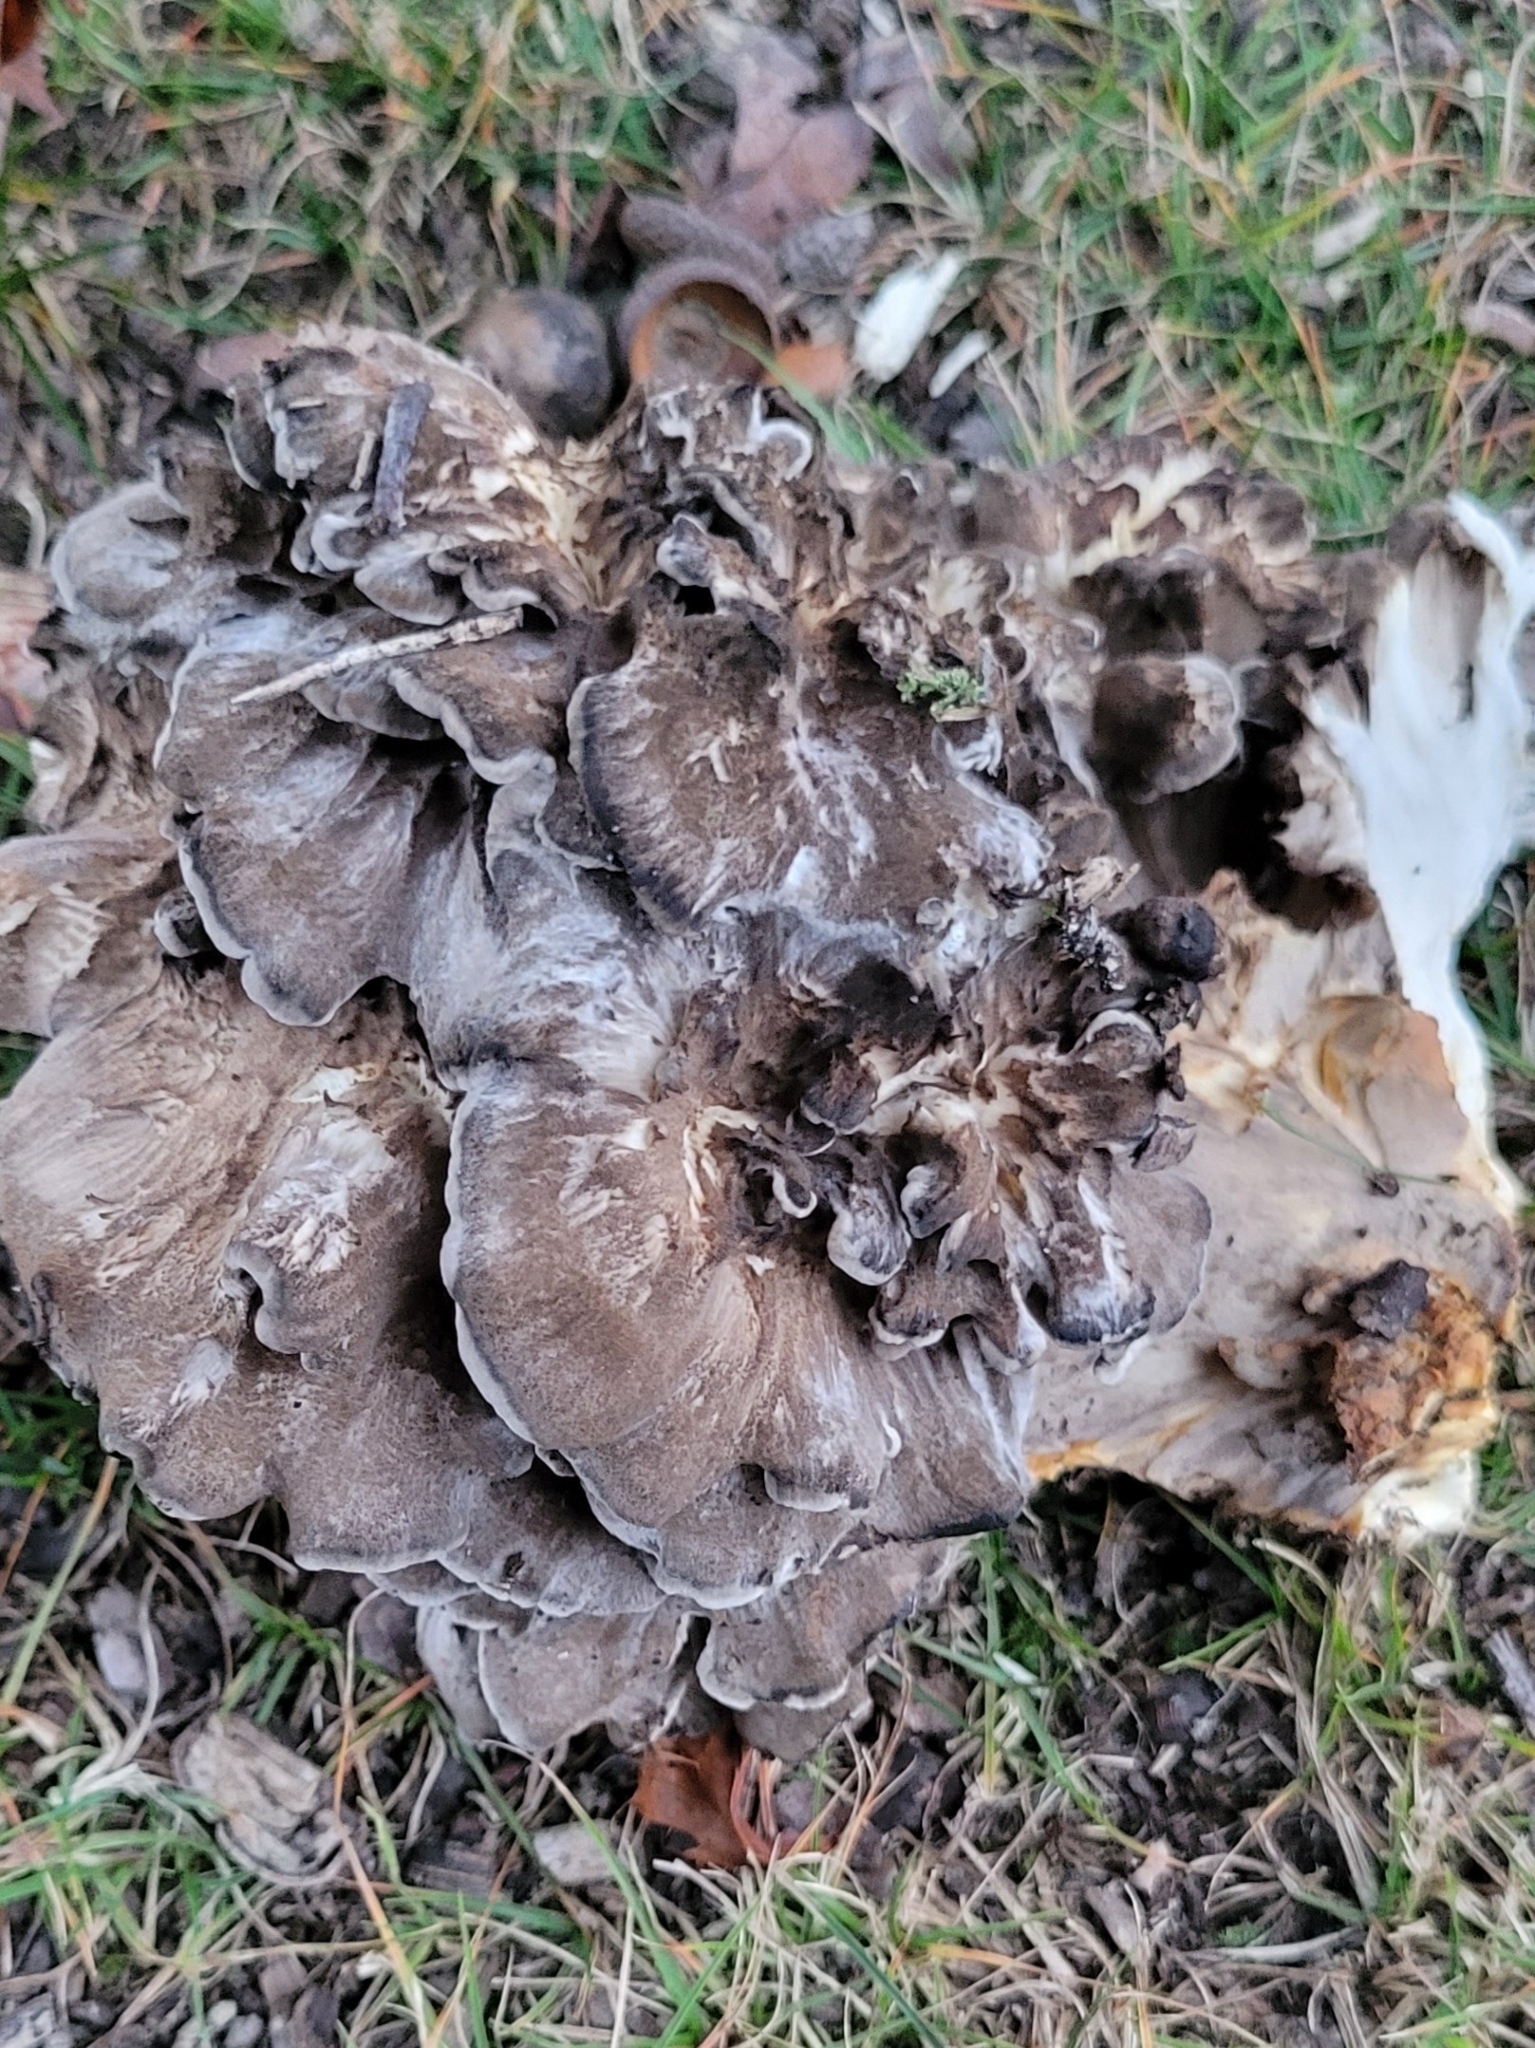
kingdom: Fungi
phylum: Basidiomycota
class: Agaricomycetes
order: Polyporales
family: Grifolaceae
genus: Grifola
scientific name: Grifola frondosa
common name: Hen of the woods
